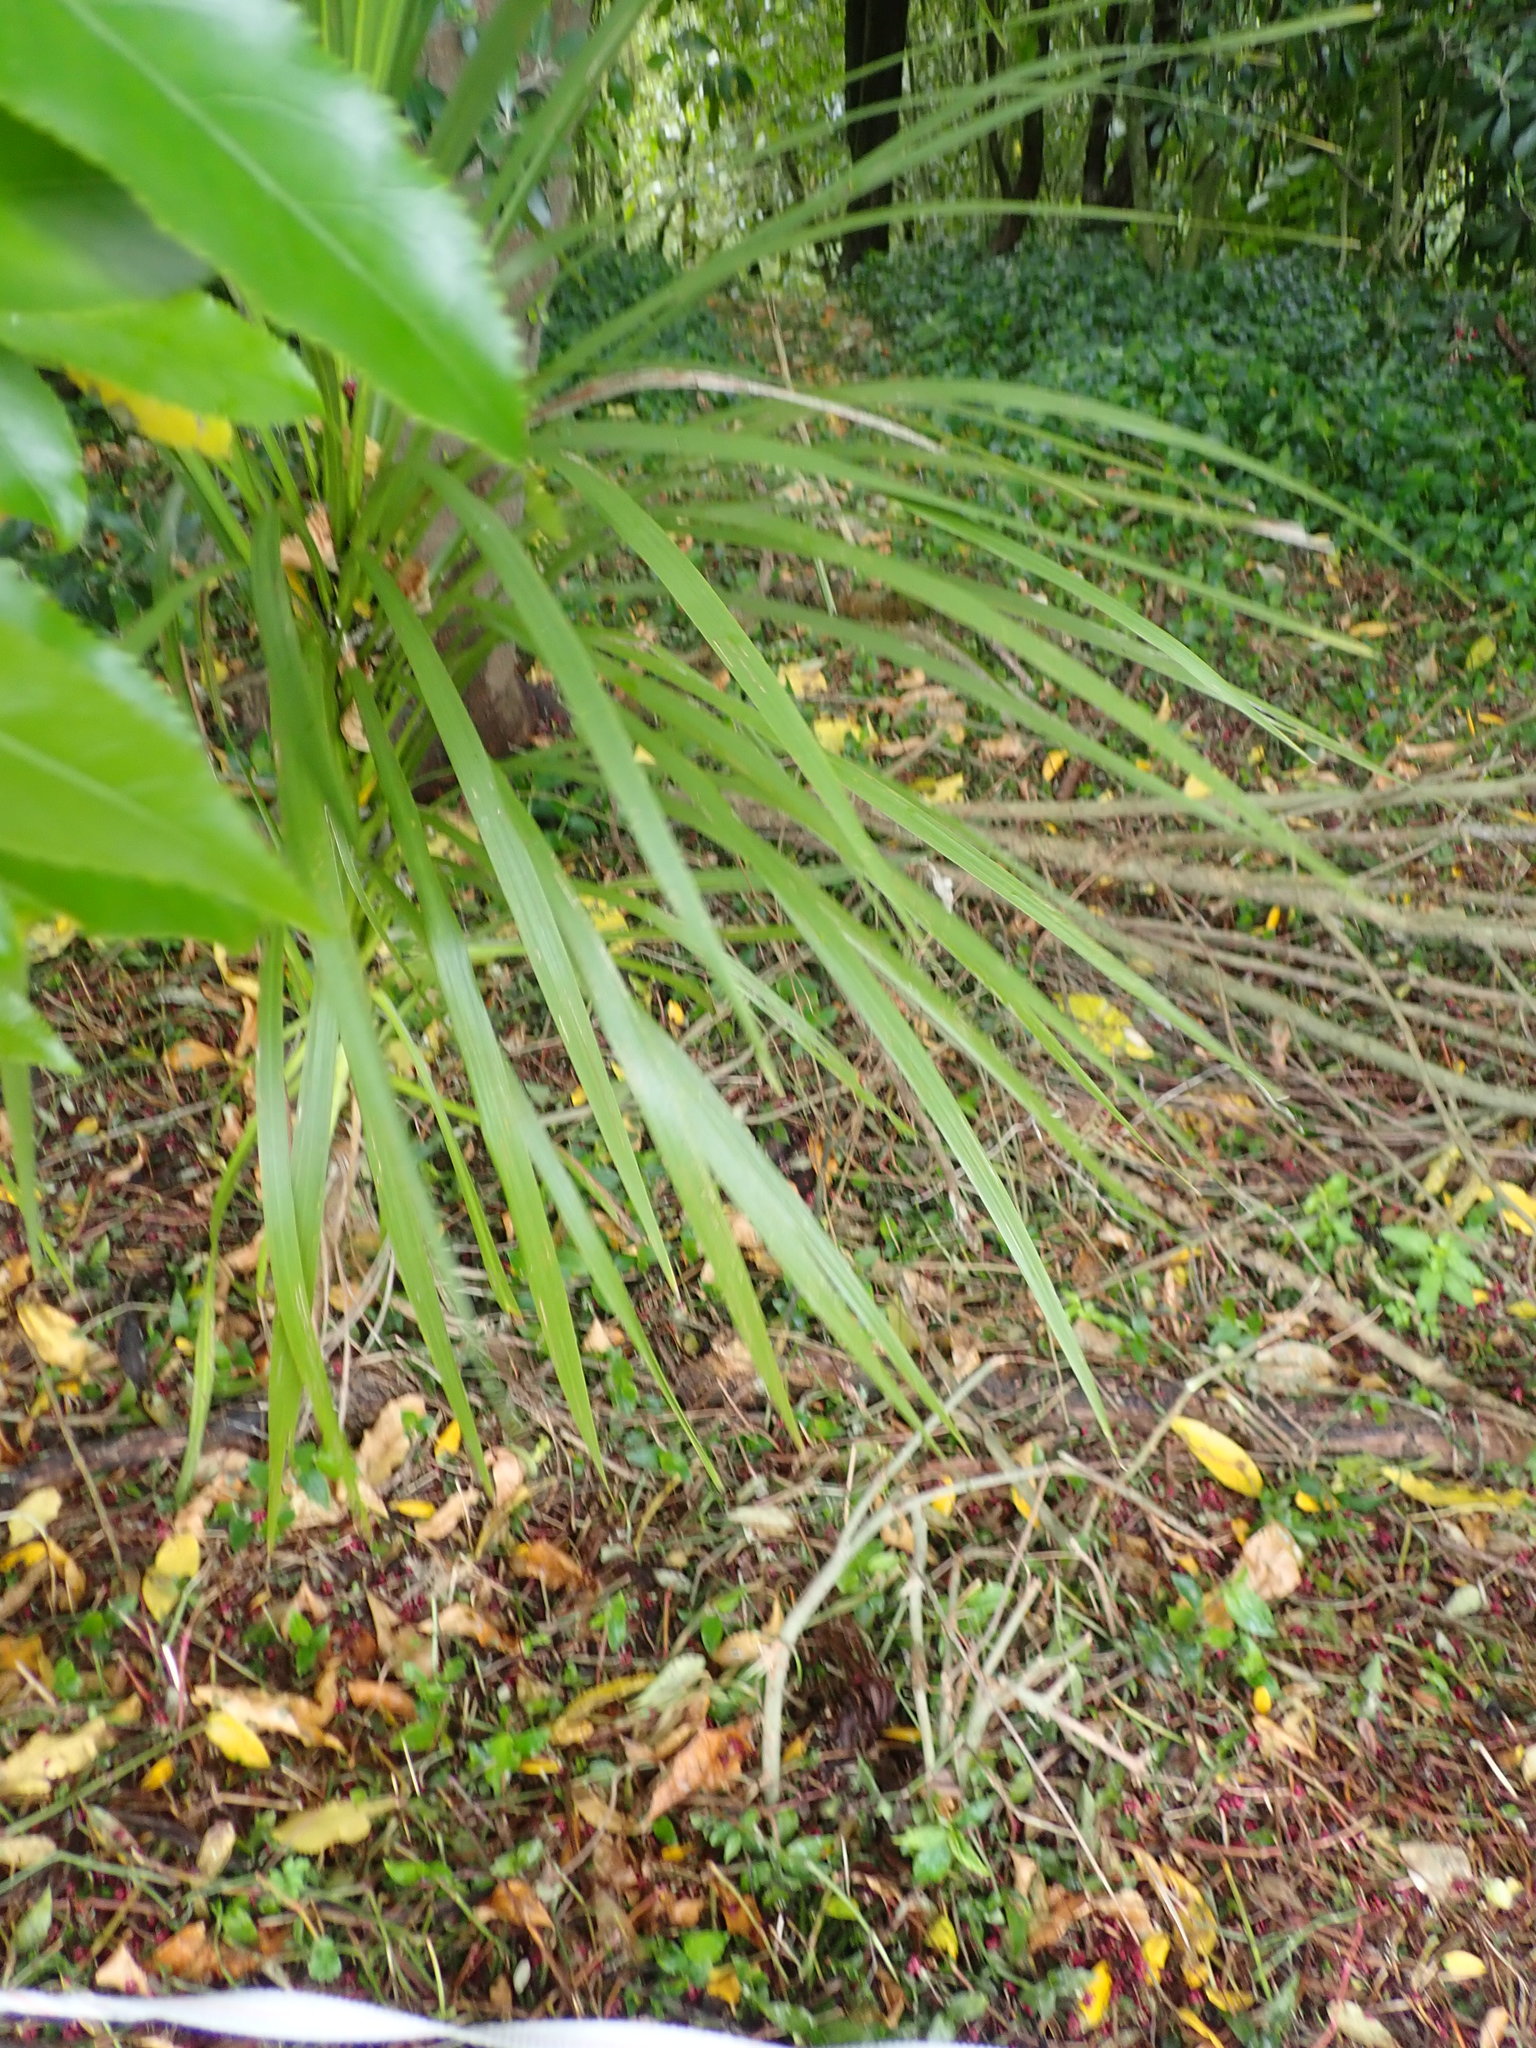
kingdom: Plantae
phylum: Tracheophyta
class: Liliopsida
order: Asparagales
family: Asparagaceae
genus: Cordyline
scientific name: Cordyline australis
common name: Cabbage-palm
